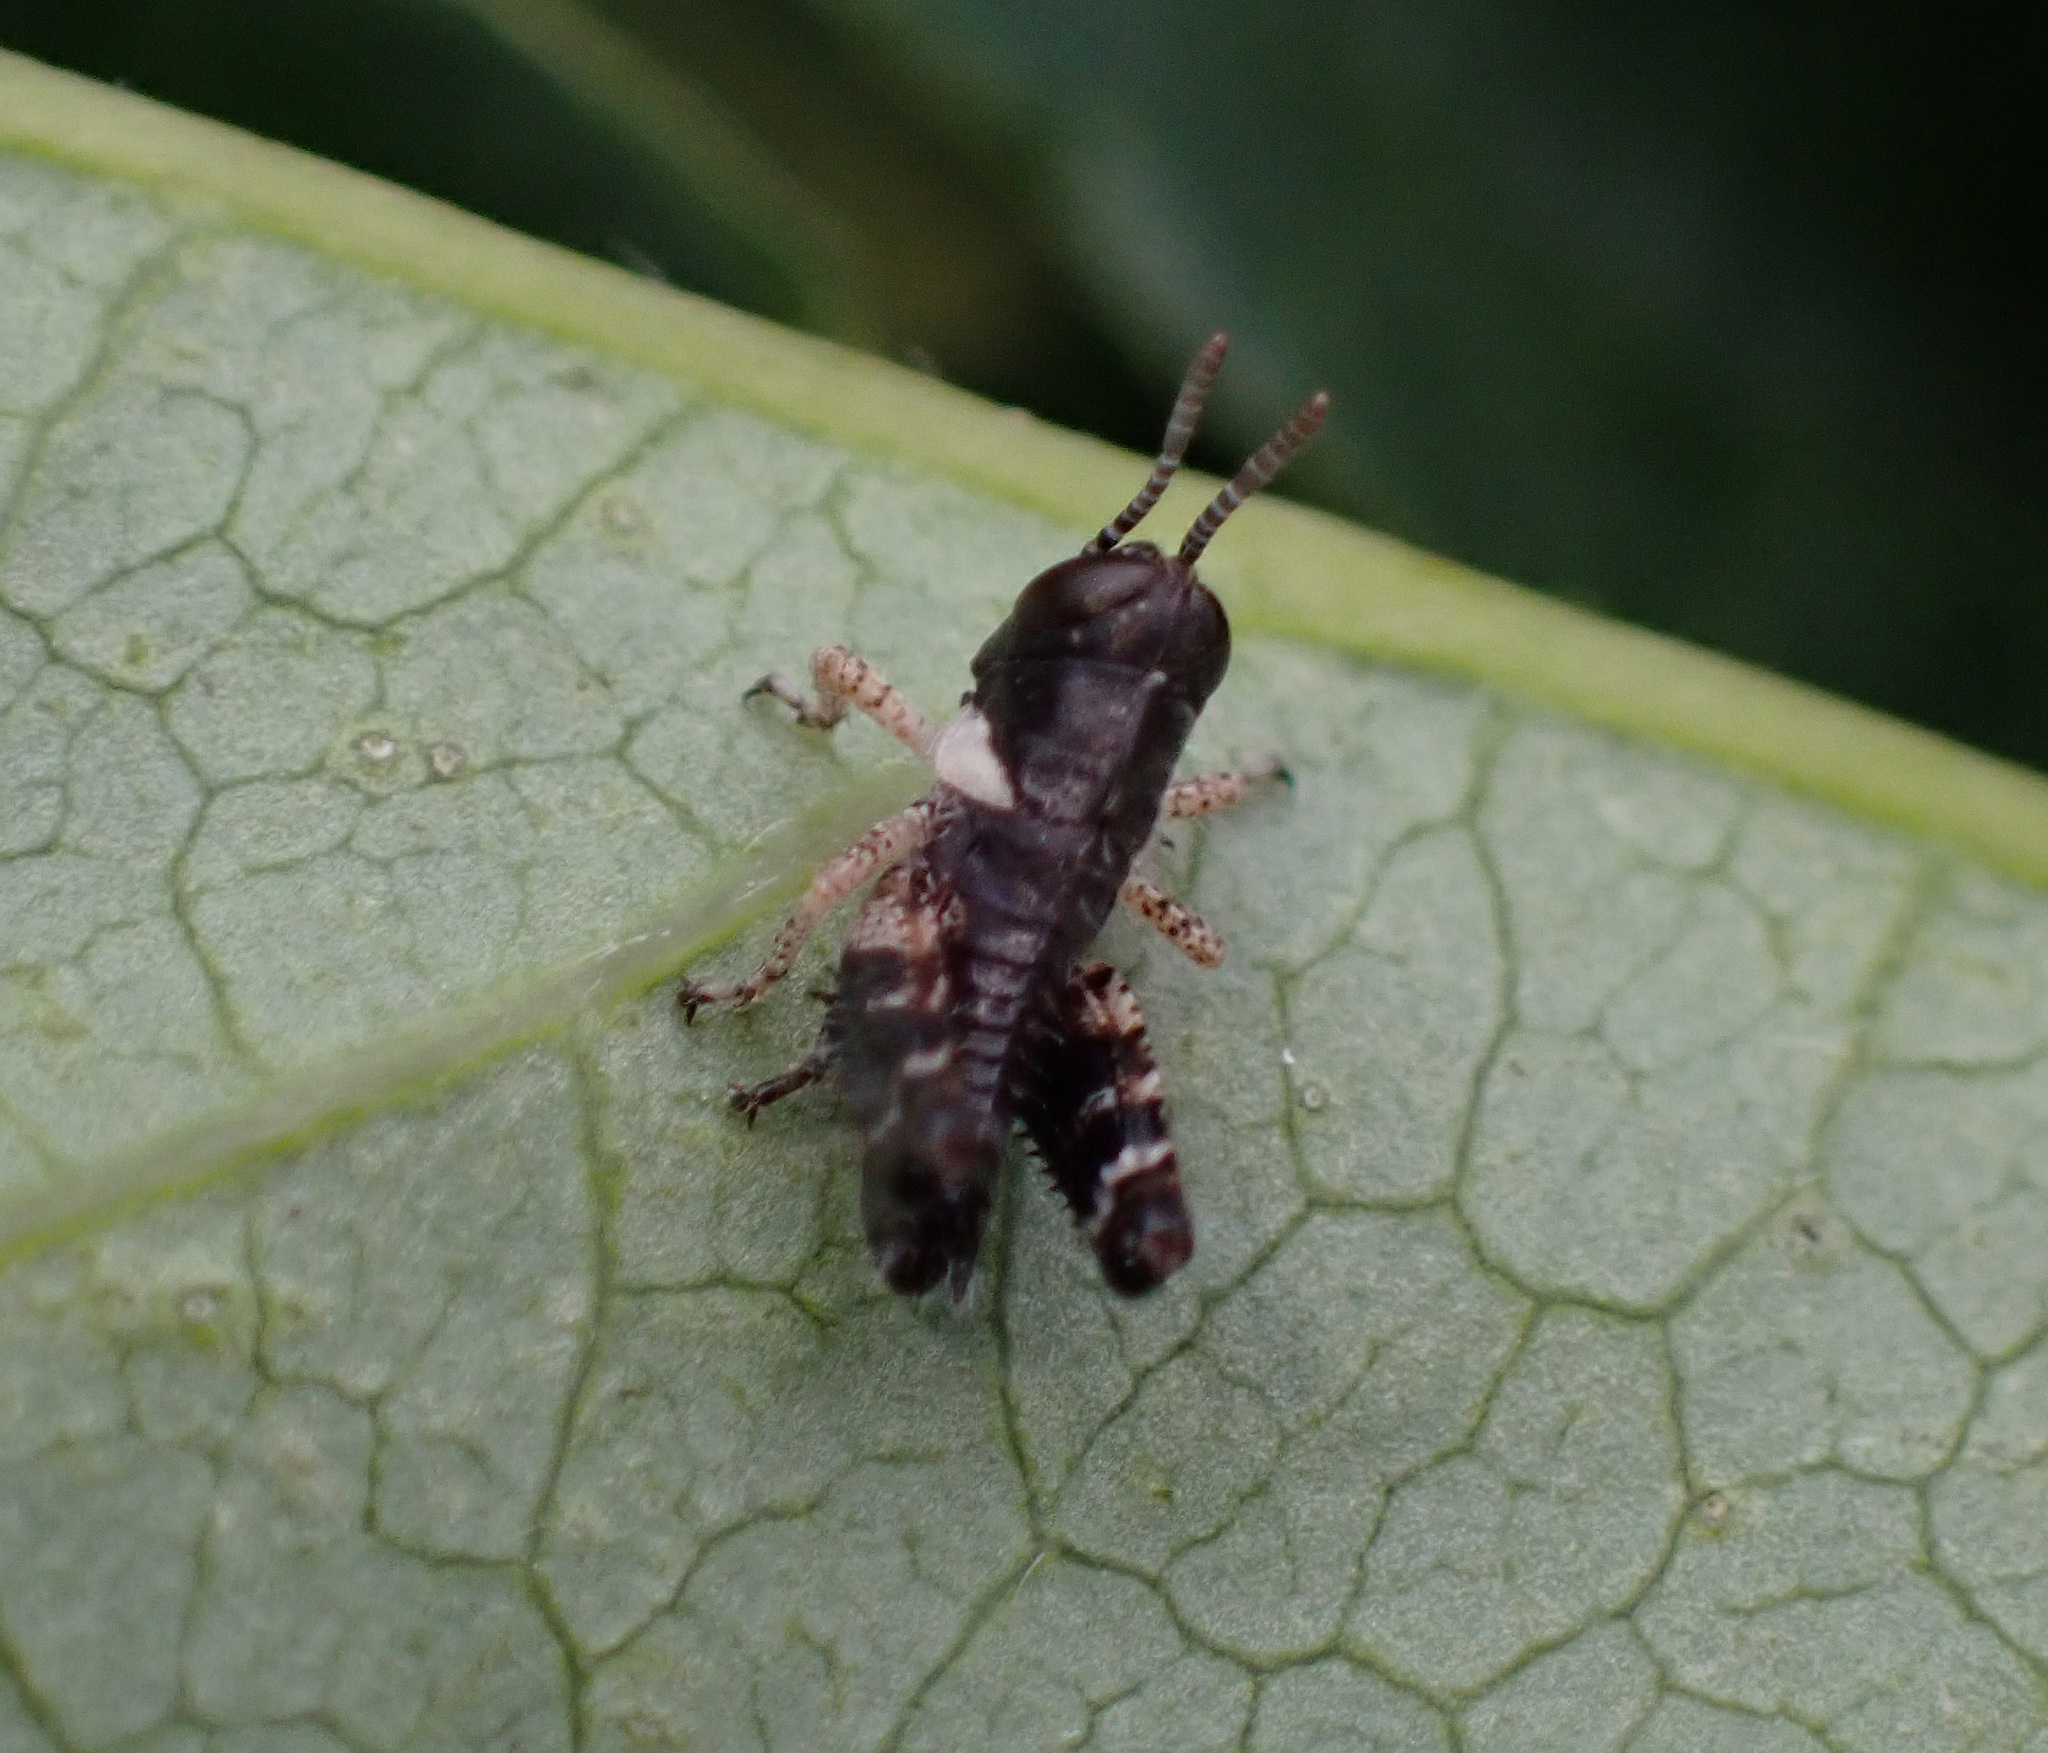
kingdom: Animalia
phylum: Arthropoda
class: Insecta
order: Orthoptera
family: Acrididae
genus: Calliptamus
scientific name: Calliptamus italicus
